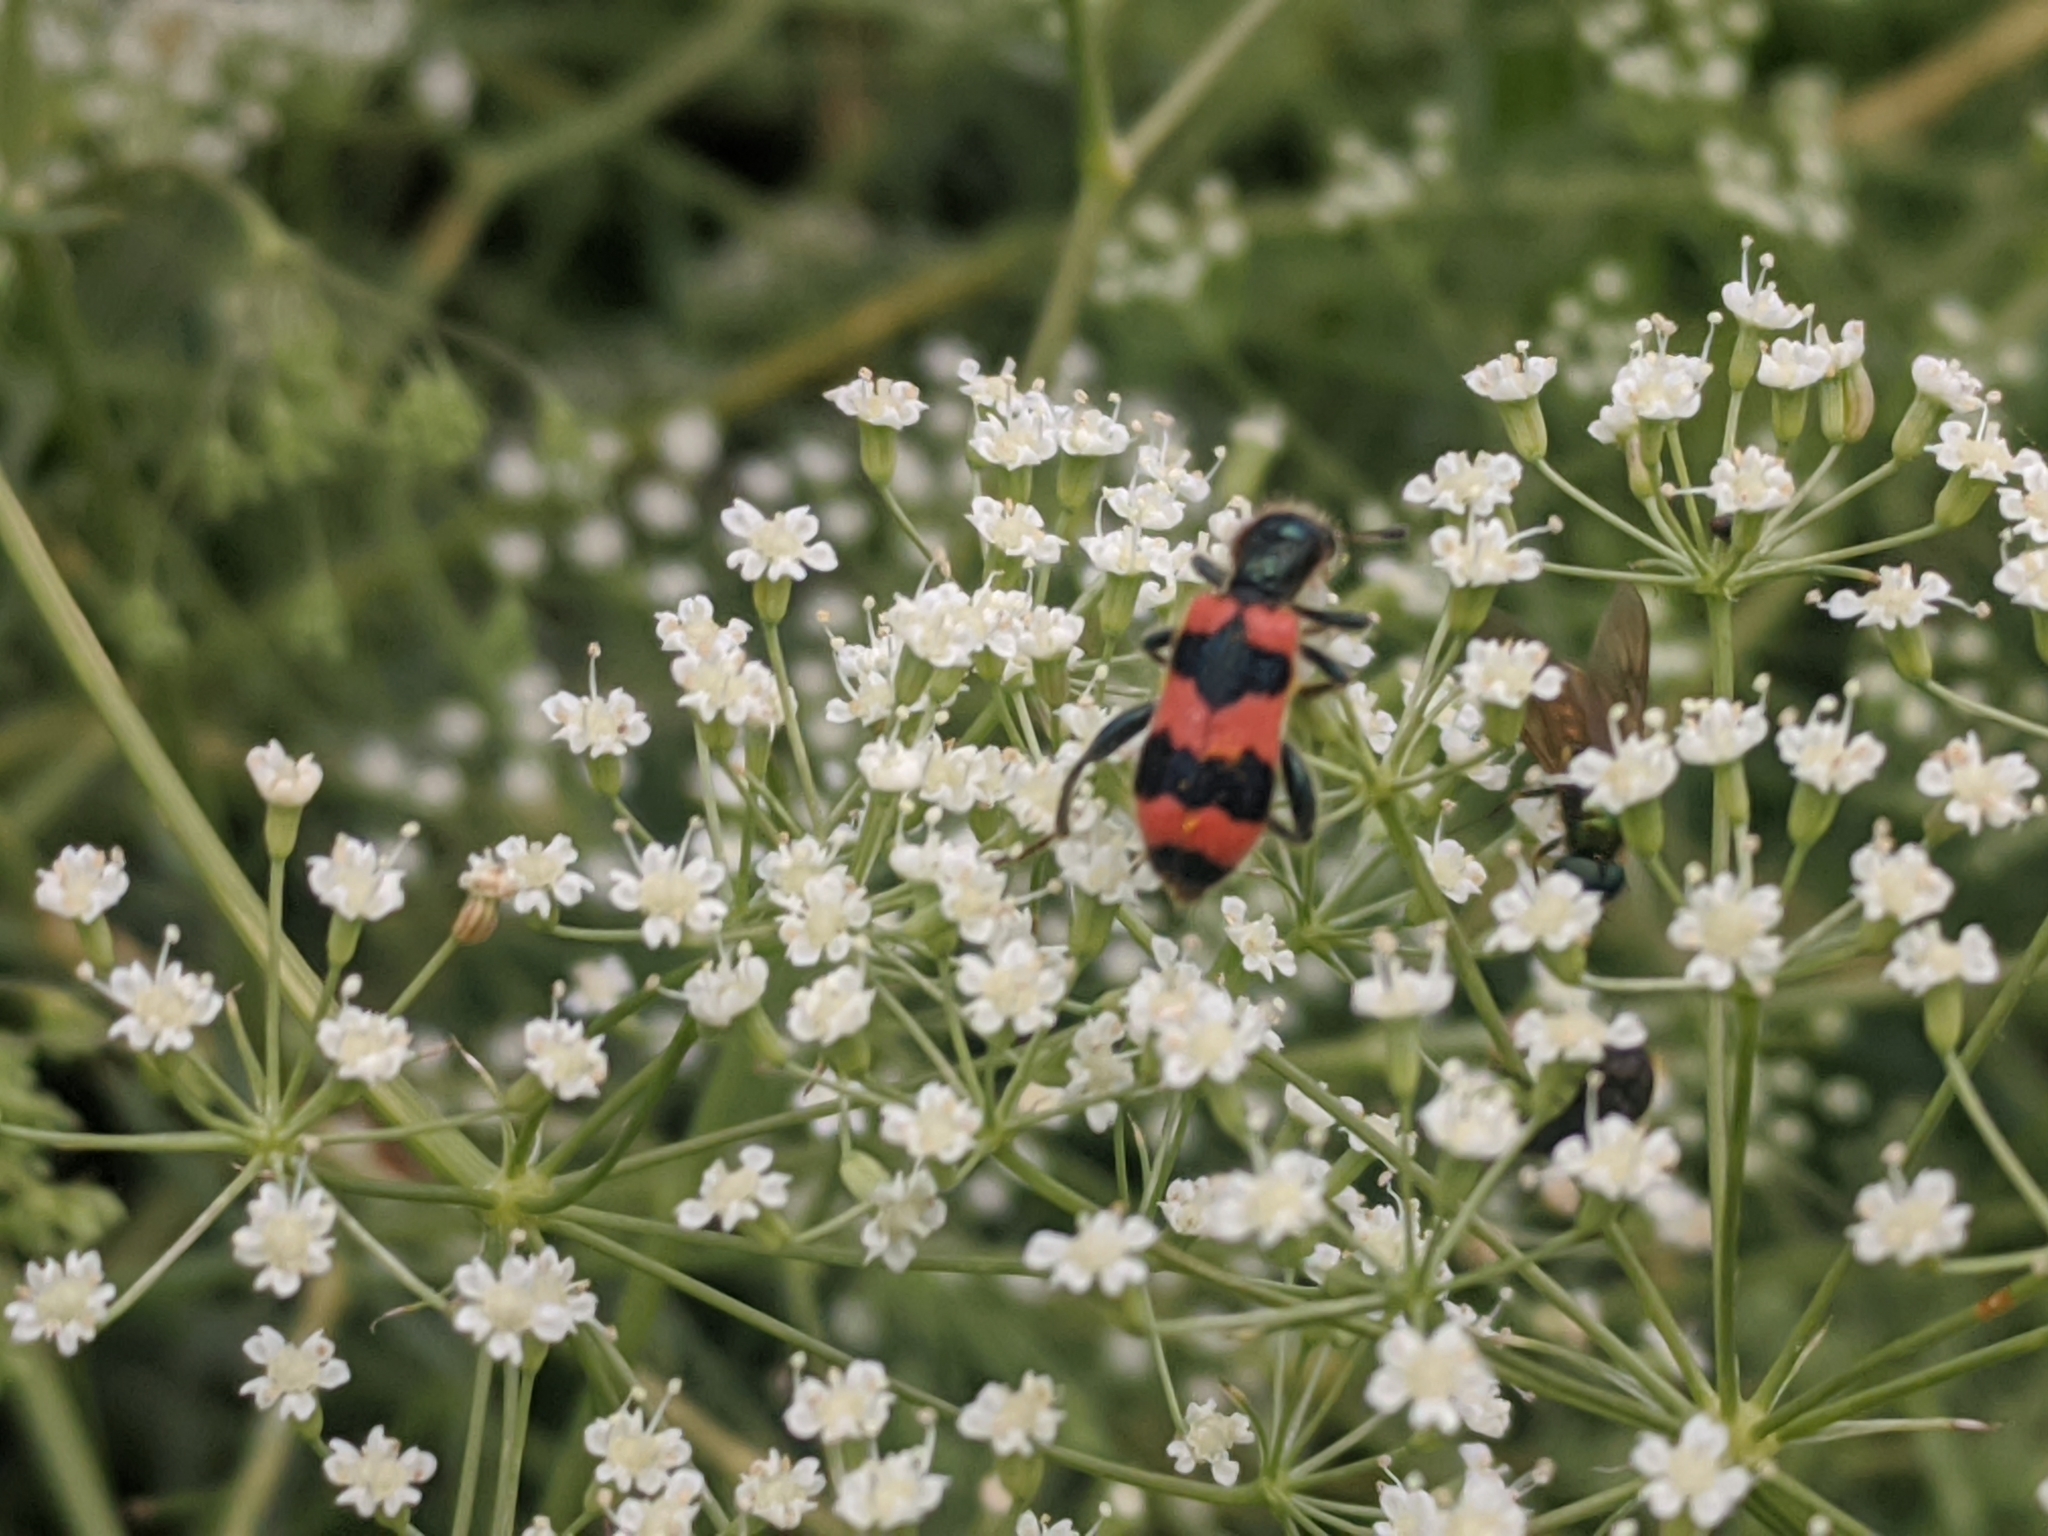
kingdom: Animalia
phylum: Arthropoda
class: Insecta
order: Coleoptera
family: Cleridae
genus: Trichodes
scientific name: Trichodes apiarius
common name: Bee-eating beetle
